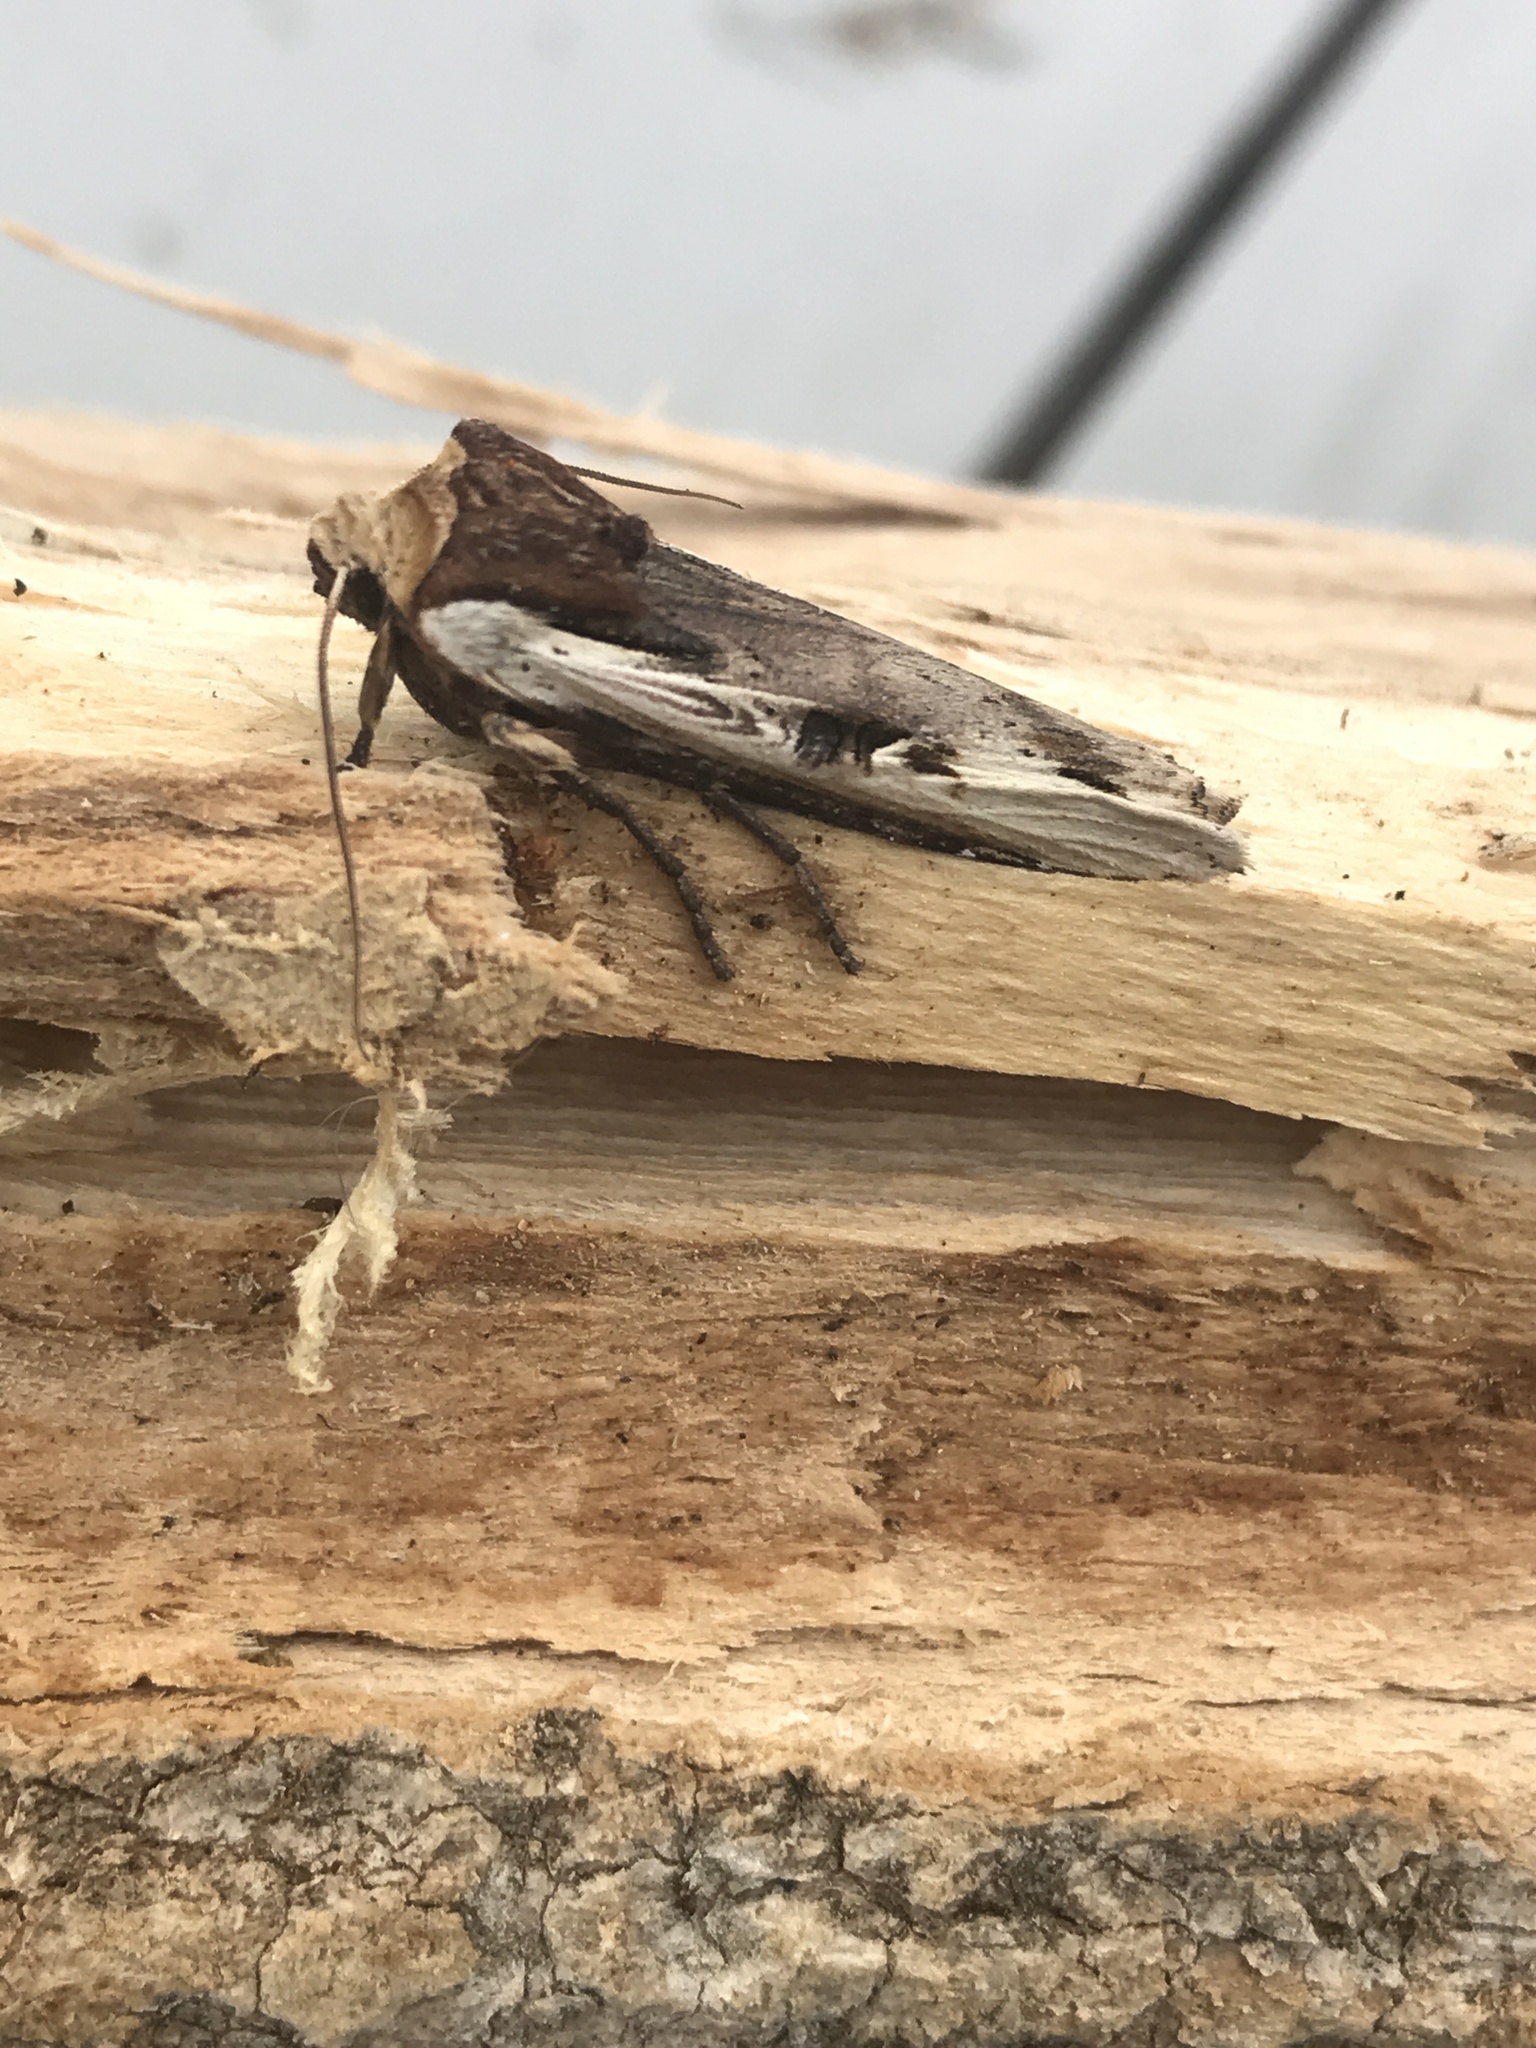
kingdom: Animalia
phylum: Arthropoda
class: Insecta
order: Lepidoptera
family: Noctuidae
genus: Xylena
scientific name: Xylena curvimacula
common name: Dot-and-dash swordgrass moth
